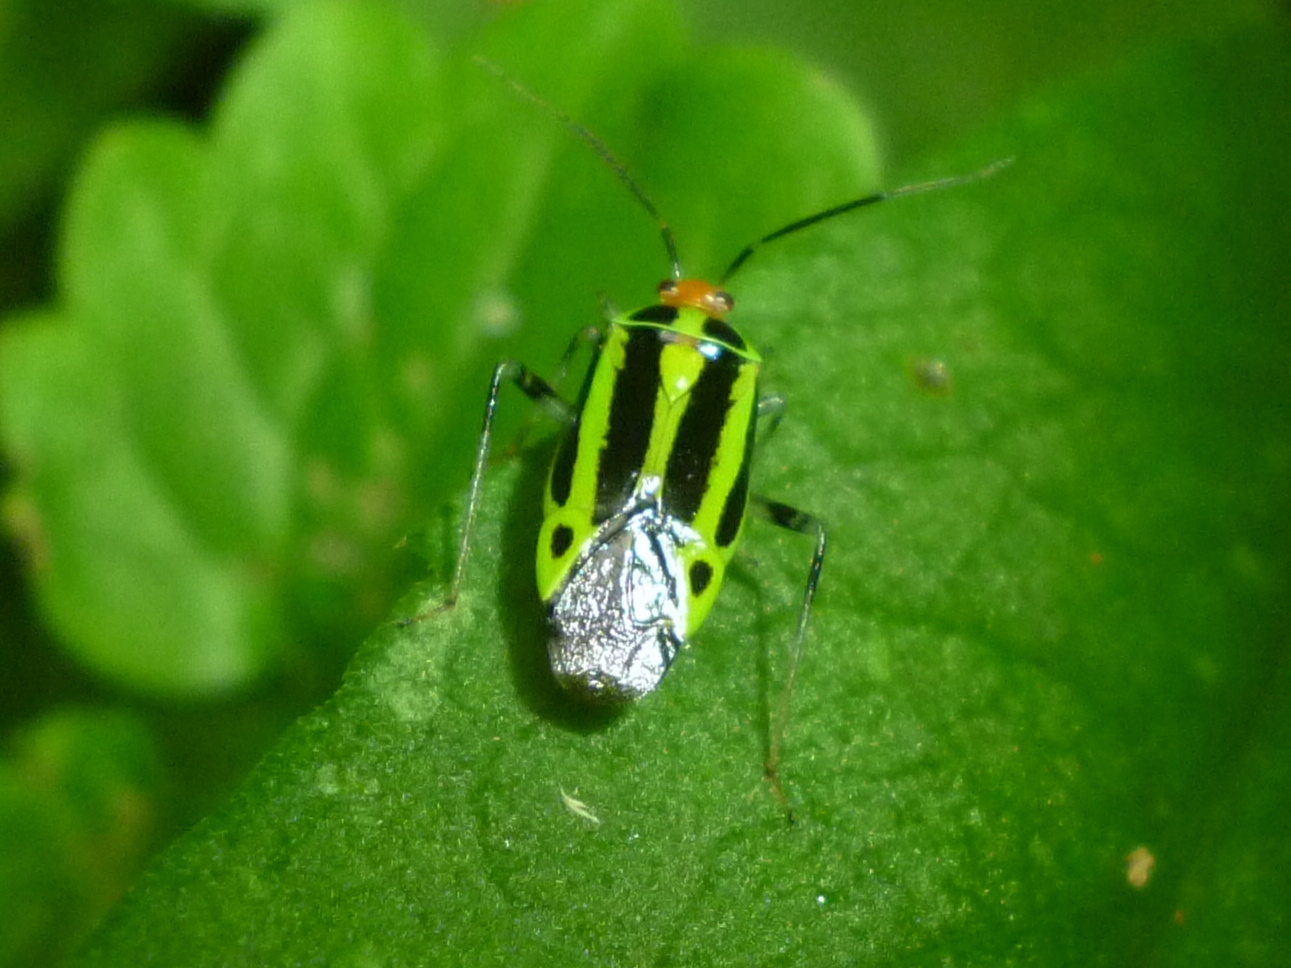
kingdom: Animalia
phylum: Arthropoda
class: Insecta
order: Hemiptera
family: Miridae
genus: Poecilocapsus
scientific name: Poecilocapsus lineatus
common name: Four-lined plant bug
